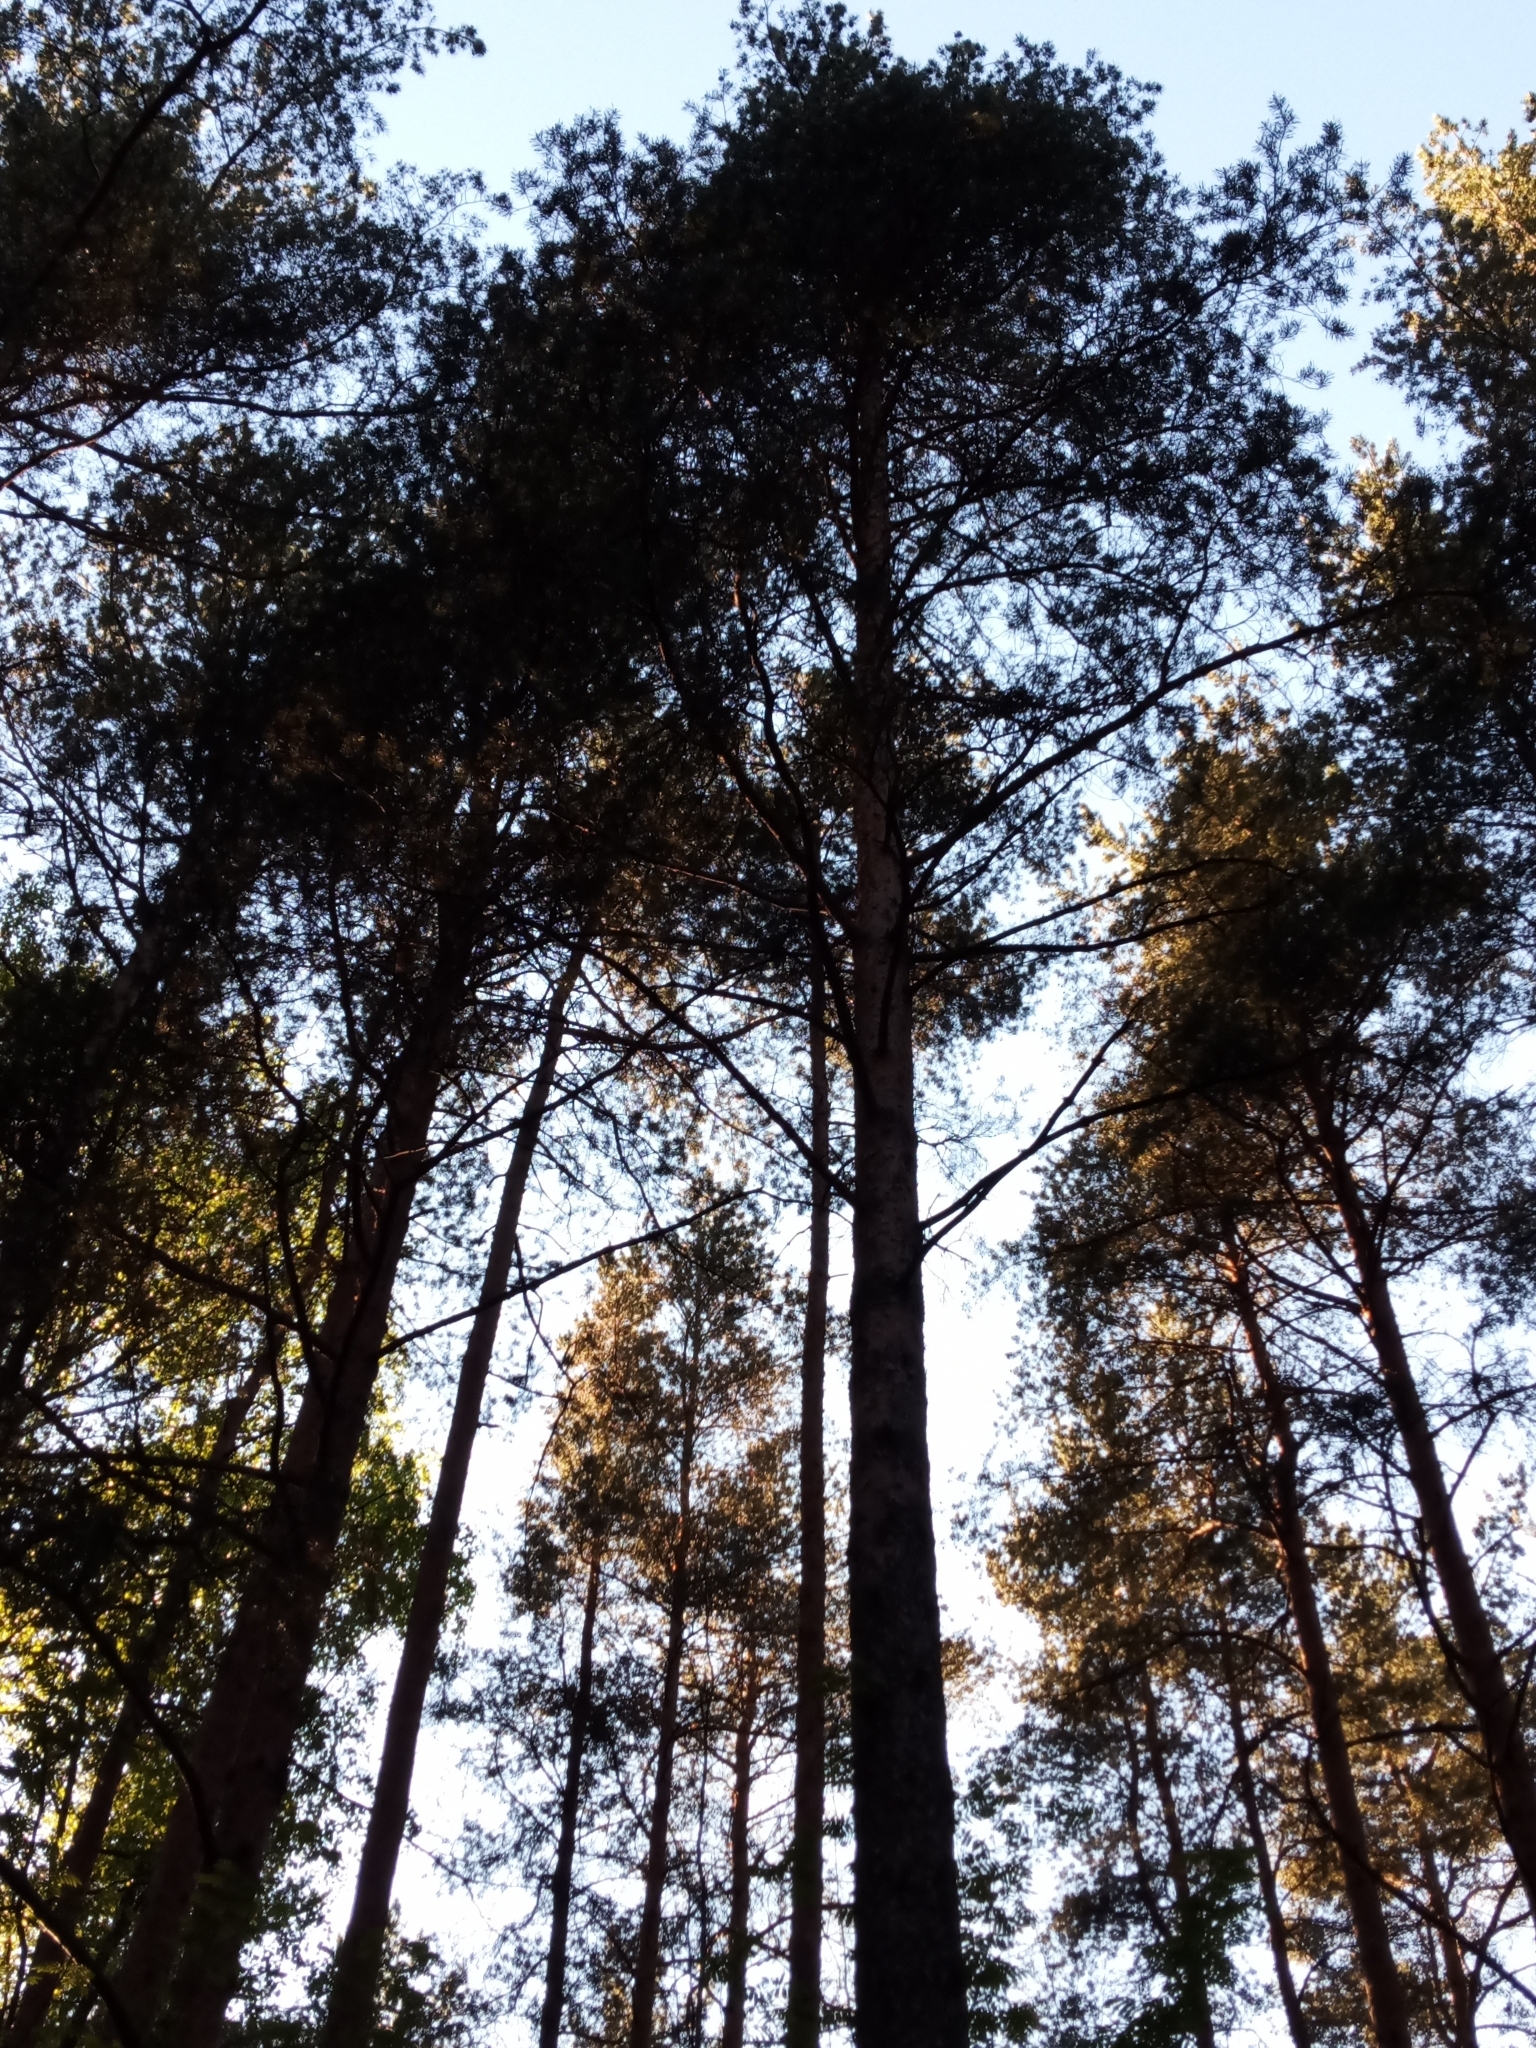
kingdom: Plantae
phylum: Tracheophyta
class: Pinopsida
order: Pinales
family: Pinaceae
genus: Pinus
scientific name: Pinus sylvestris
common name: Scots pine
